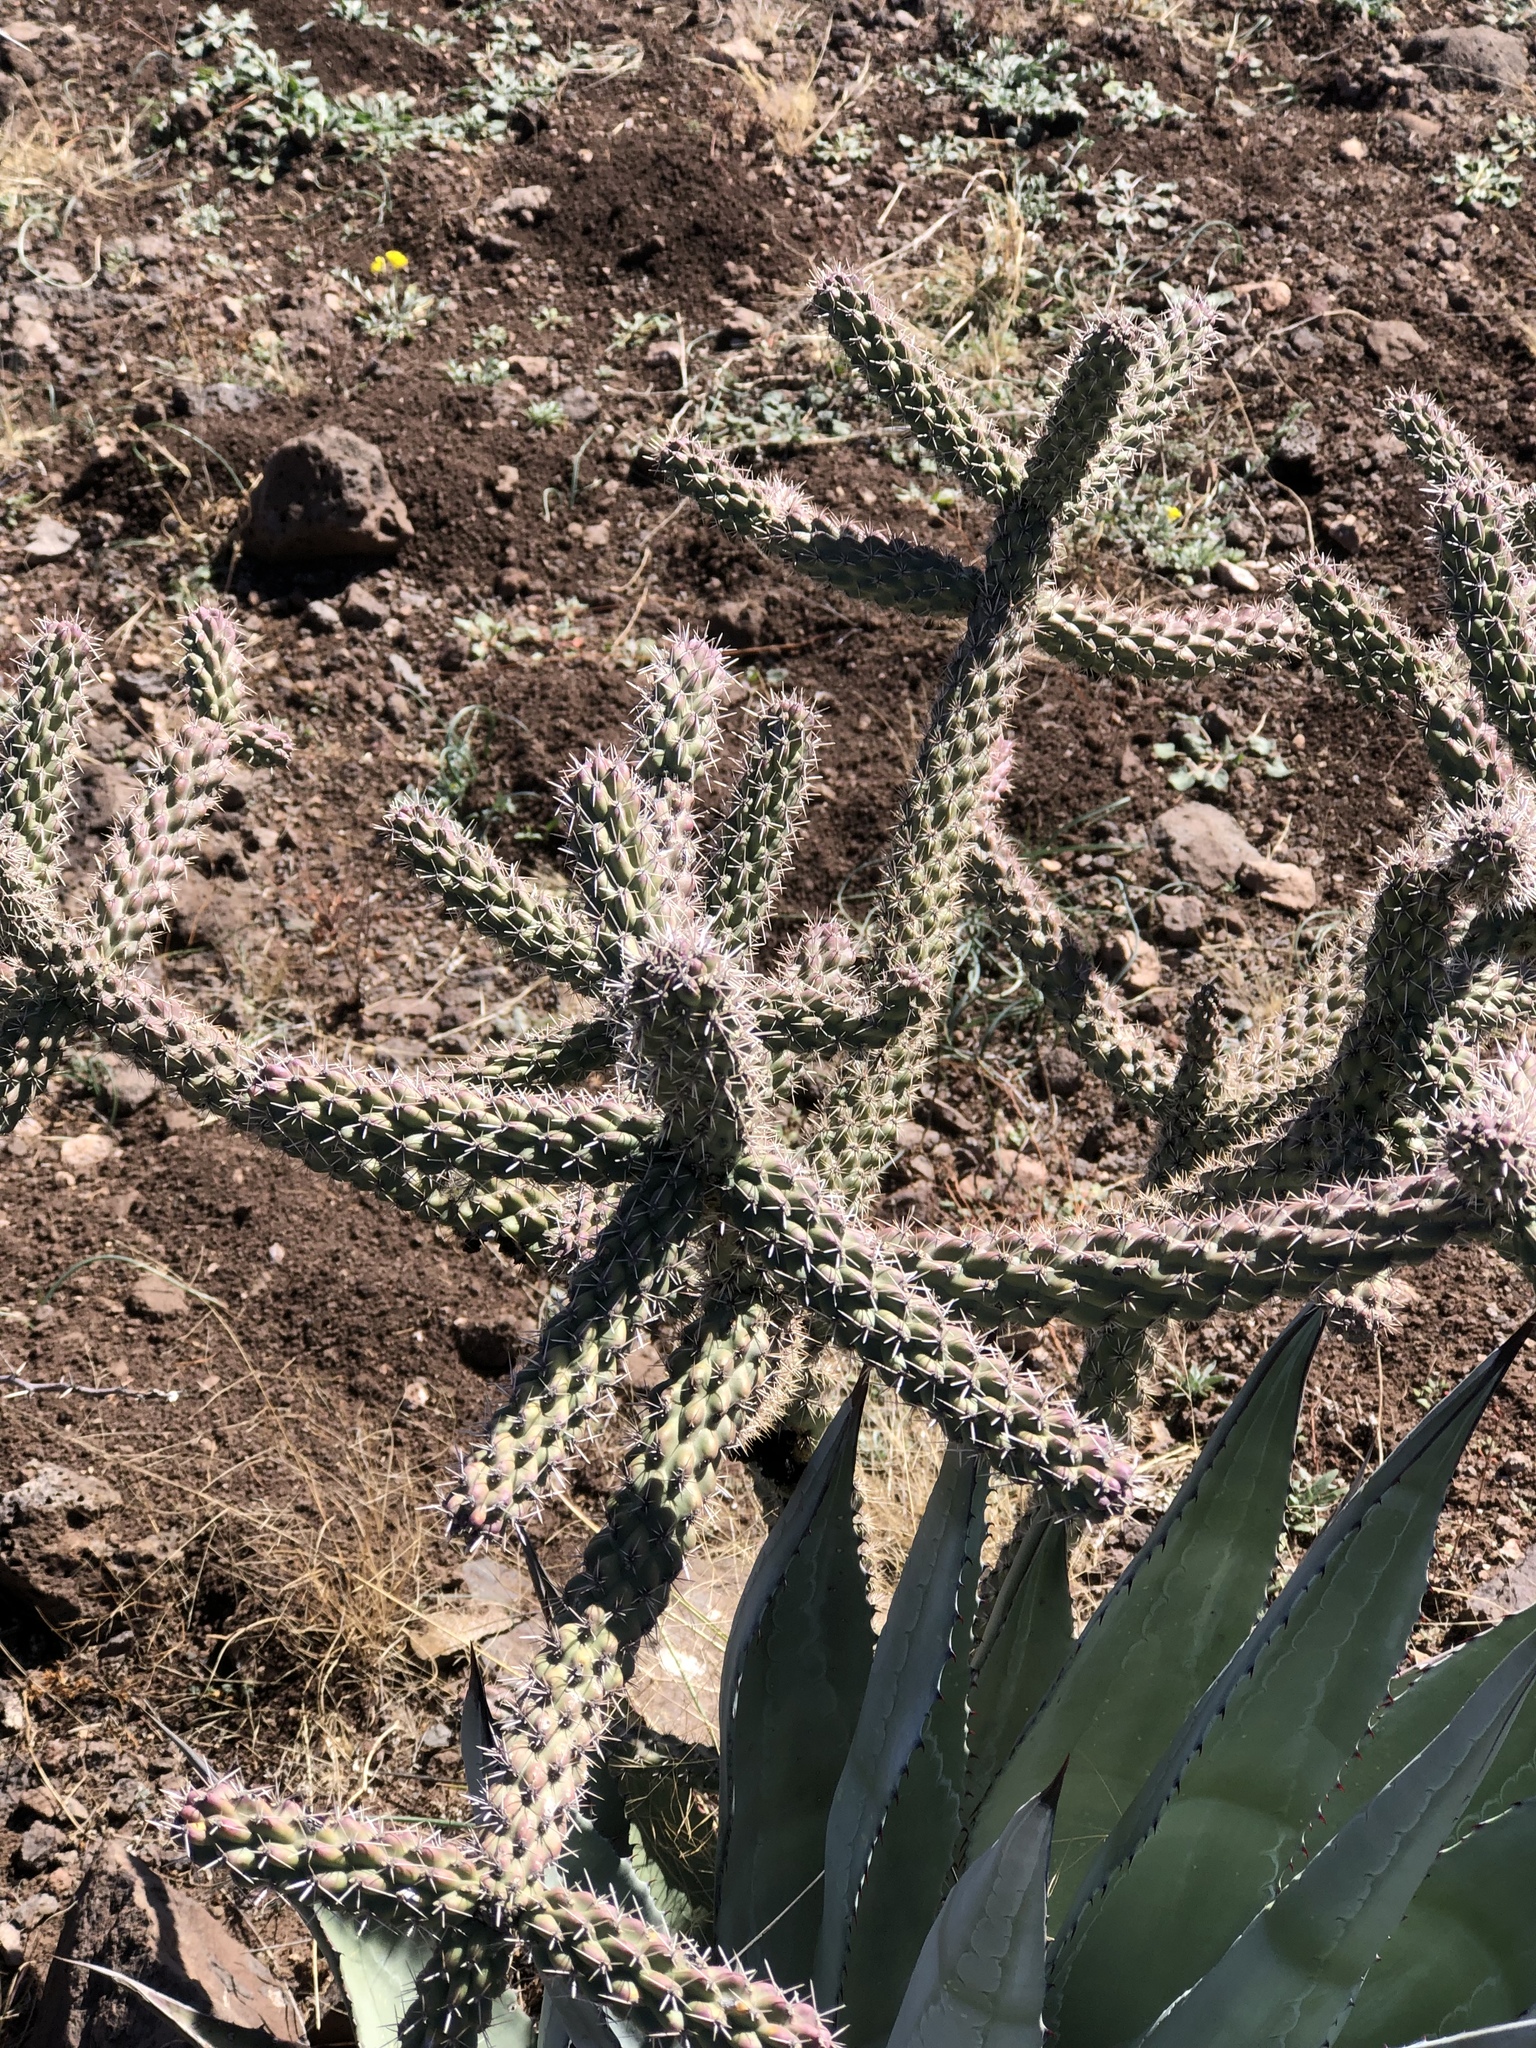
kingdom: Plantae
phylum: Tracheophyta
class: Magnoliopsida
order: Caryophyllales
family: Cactaceae
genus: Cylindropuntia
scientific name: Cylindropuntia imbricata
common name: Candelabrum cactus
